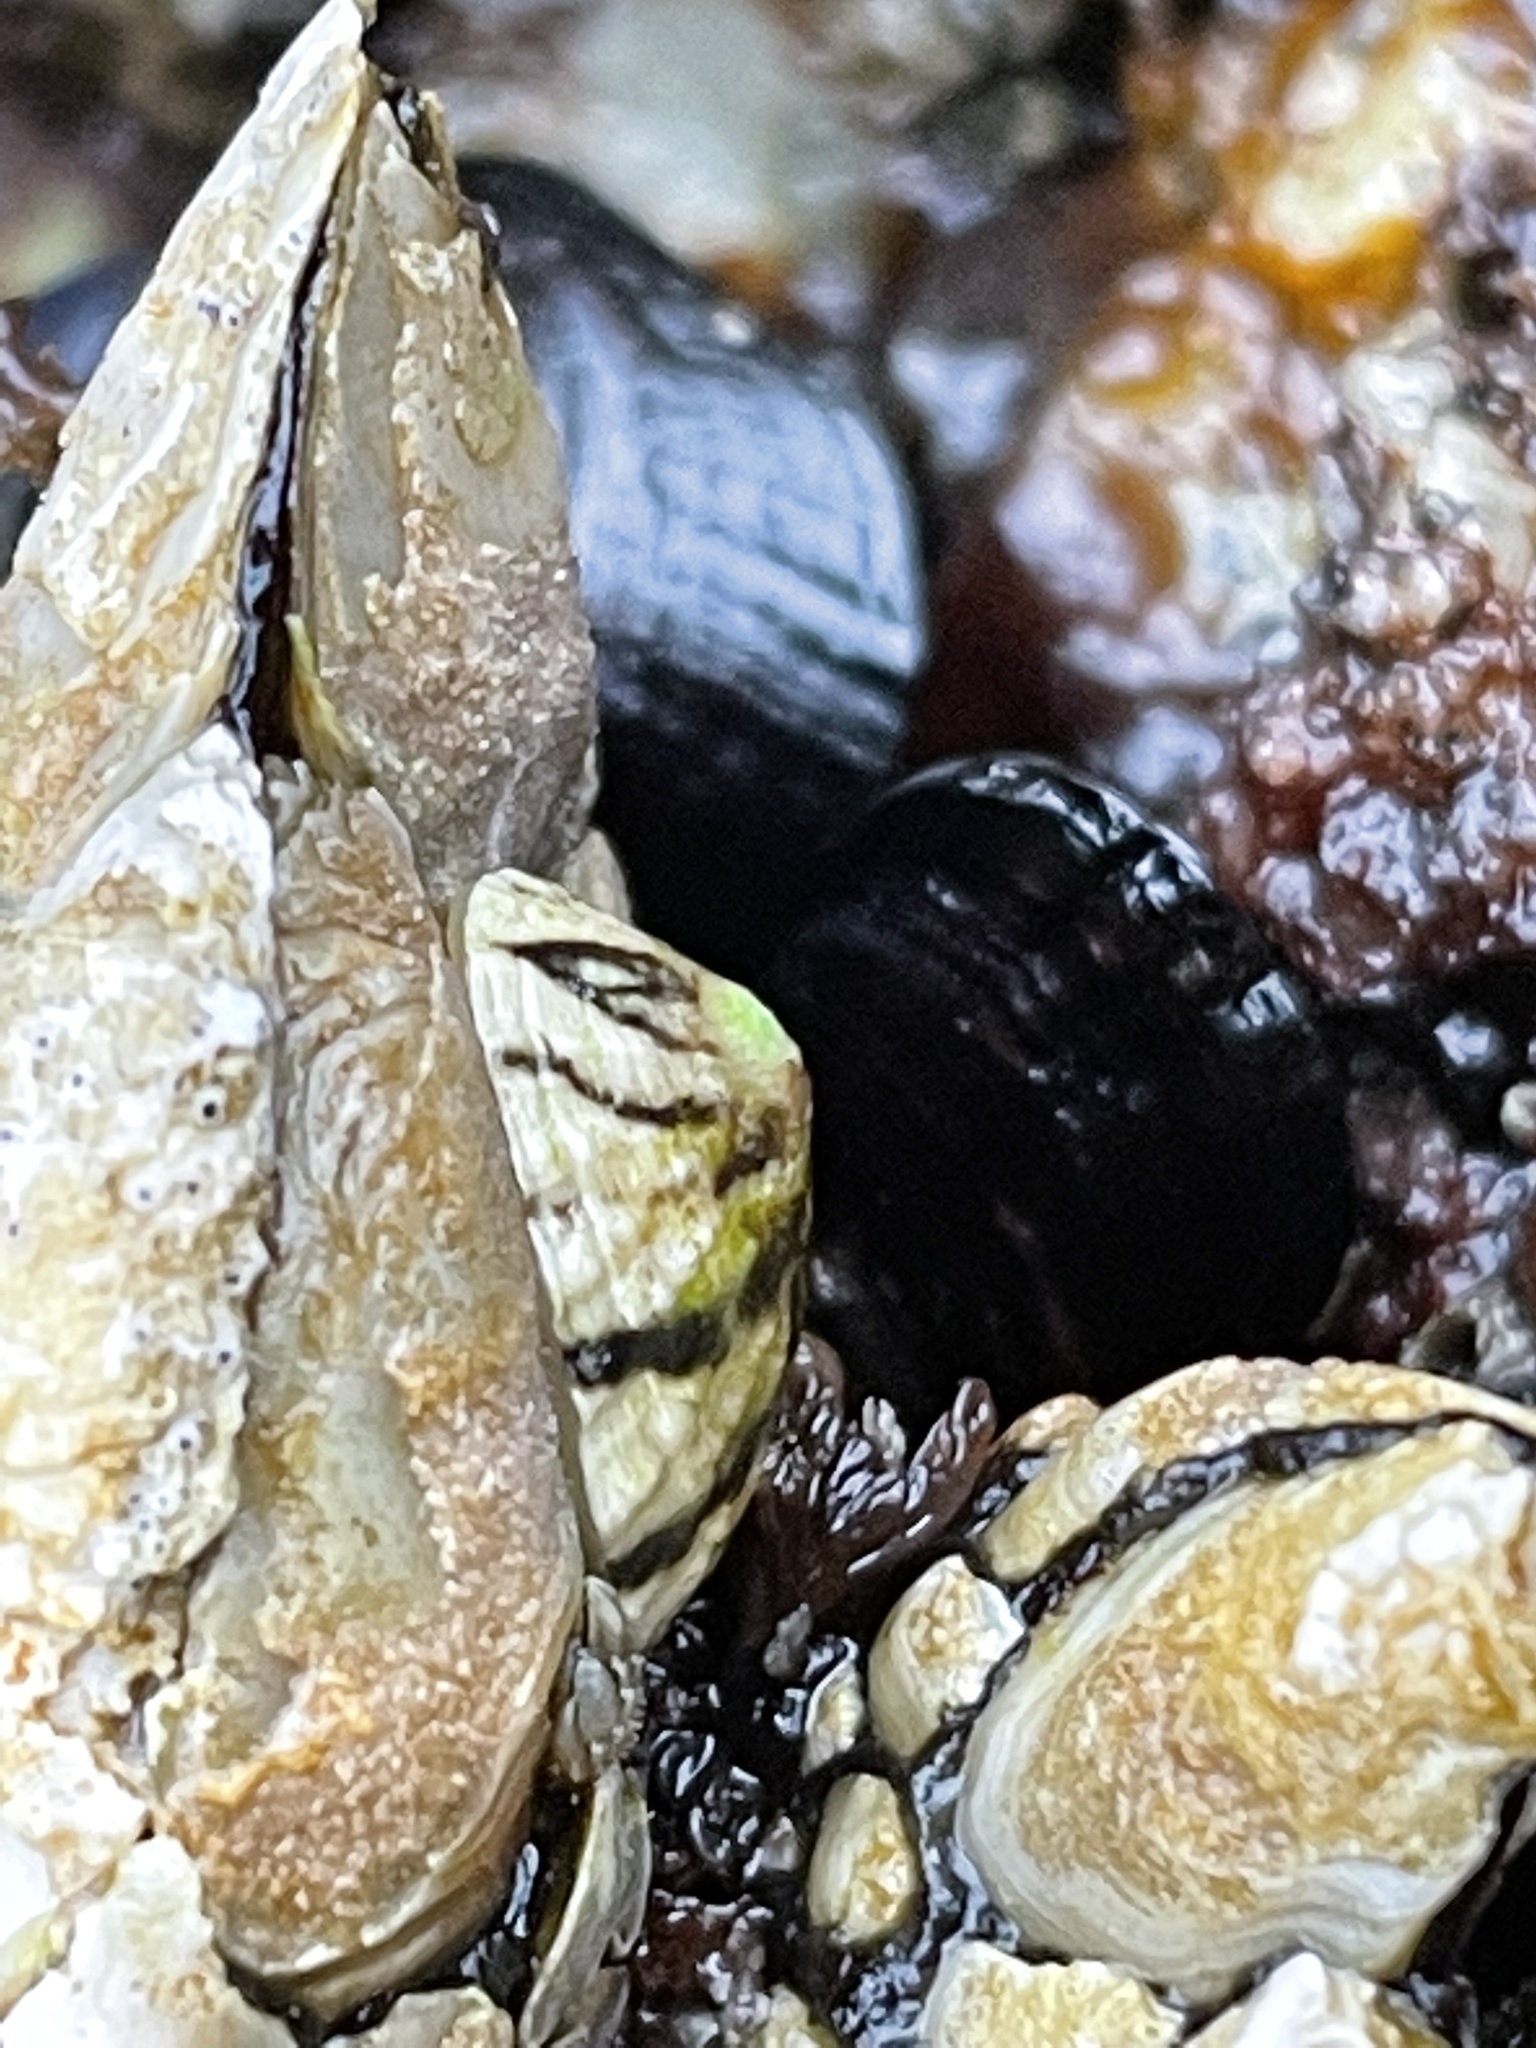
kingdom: Animalia
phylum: Mollusca
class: Gastropoda
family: Lottiidae
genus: Lottia
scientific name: Lottia austrodigitalis
